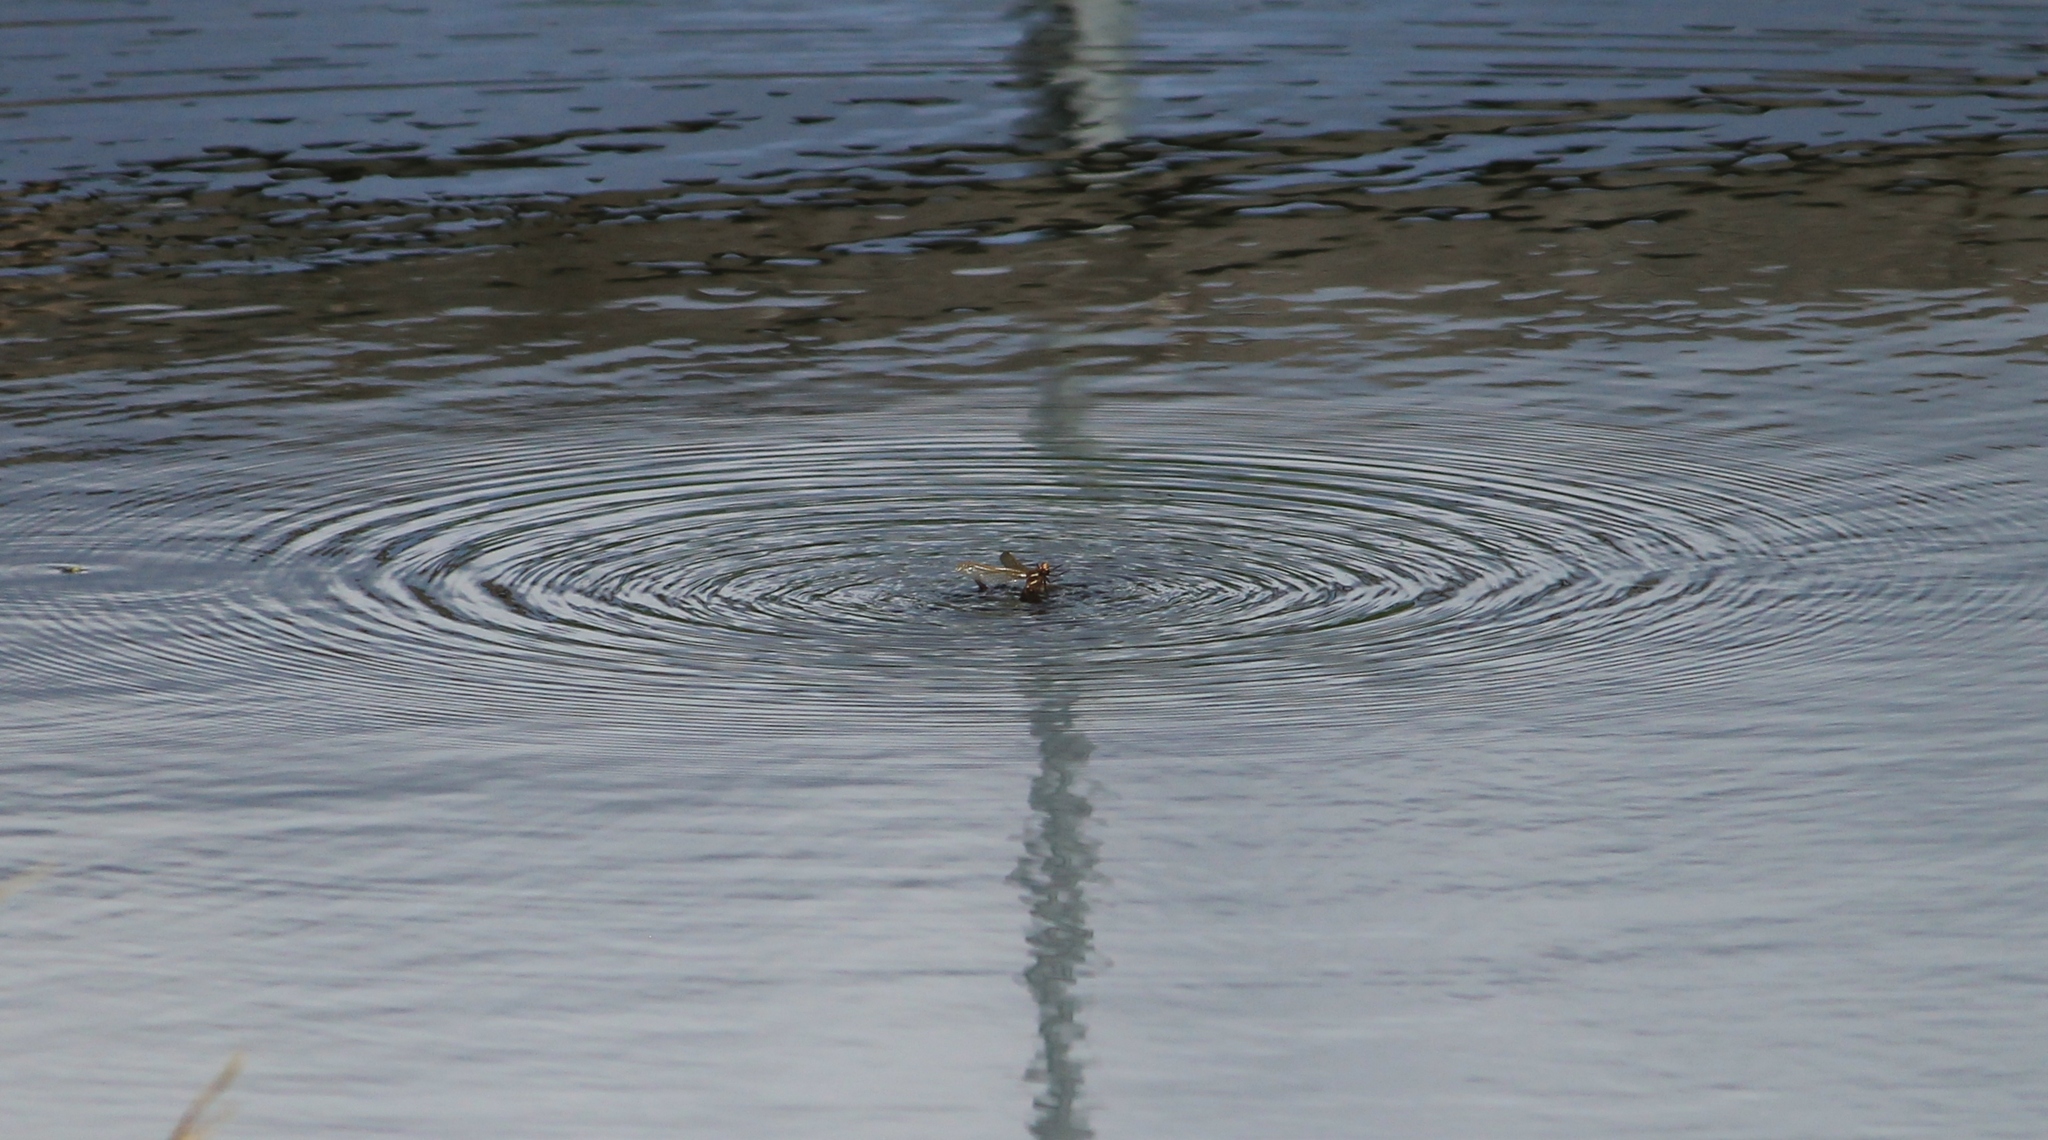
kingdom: Animalia
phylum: Arthropoda
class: Insecta
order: Odonata
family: Aeshnidae
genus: Aeshna
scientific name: Aeshna grandis
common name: Brown hawker
